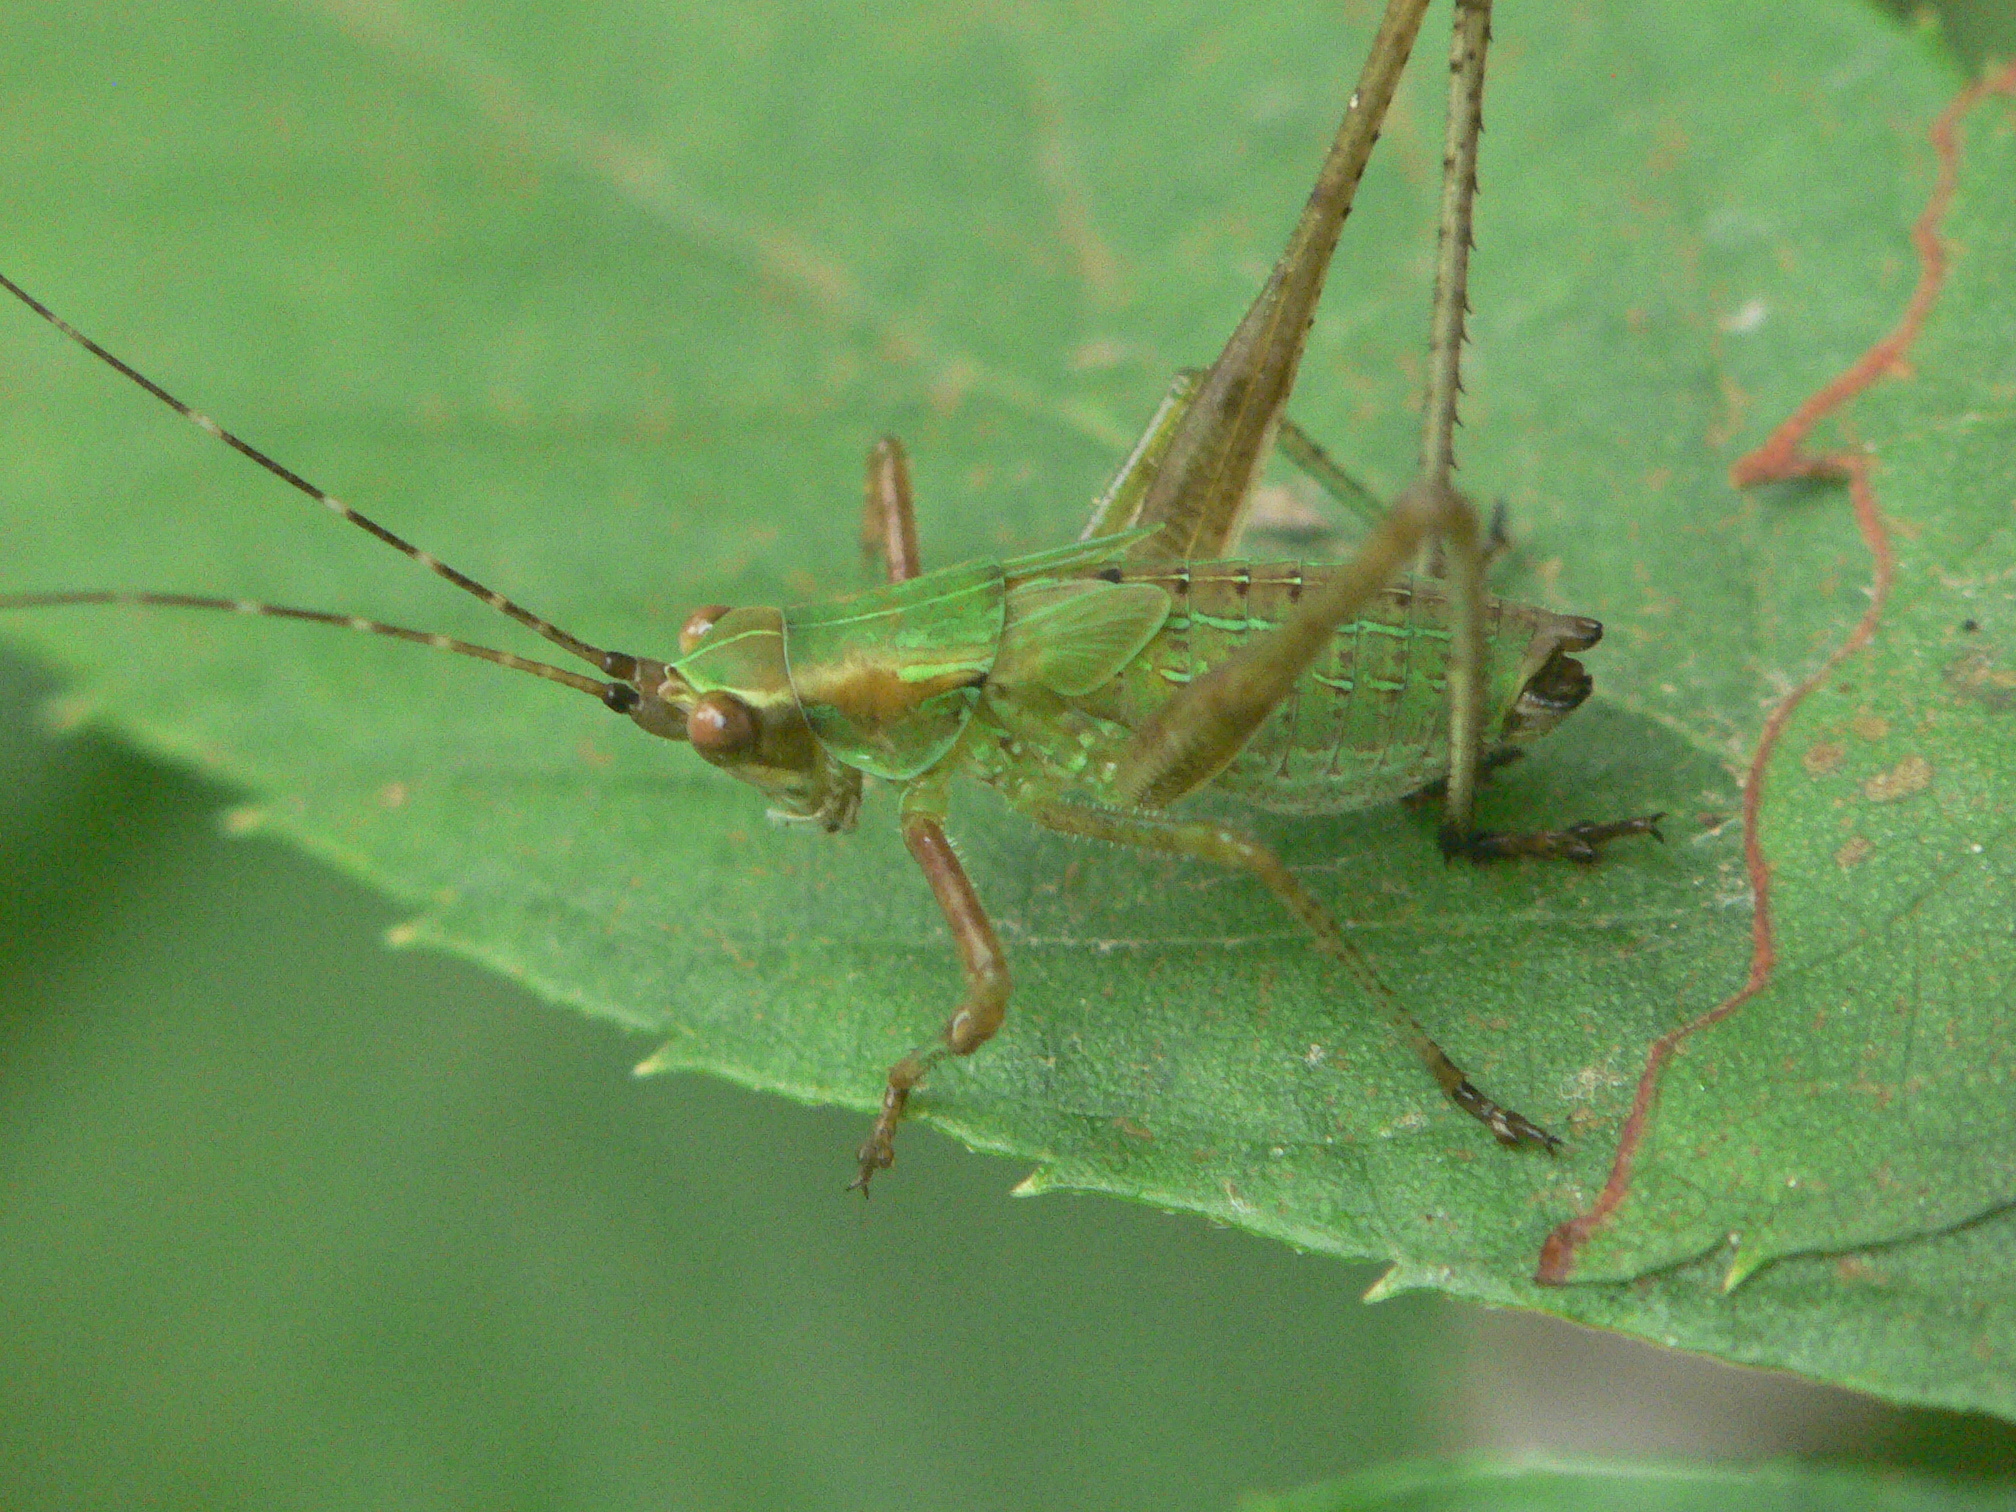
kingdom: Animalia
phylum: Arthropoda
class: Insecta
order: Orthoptera
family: Tettigoniidae
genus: Scudderia
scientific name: Scudderia furcata
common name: Fork-tailed bush katydid
